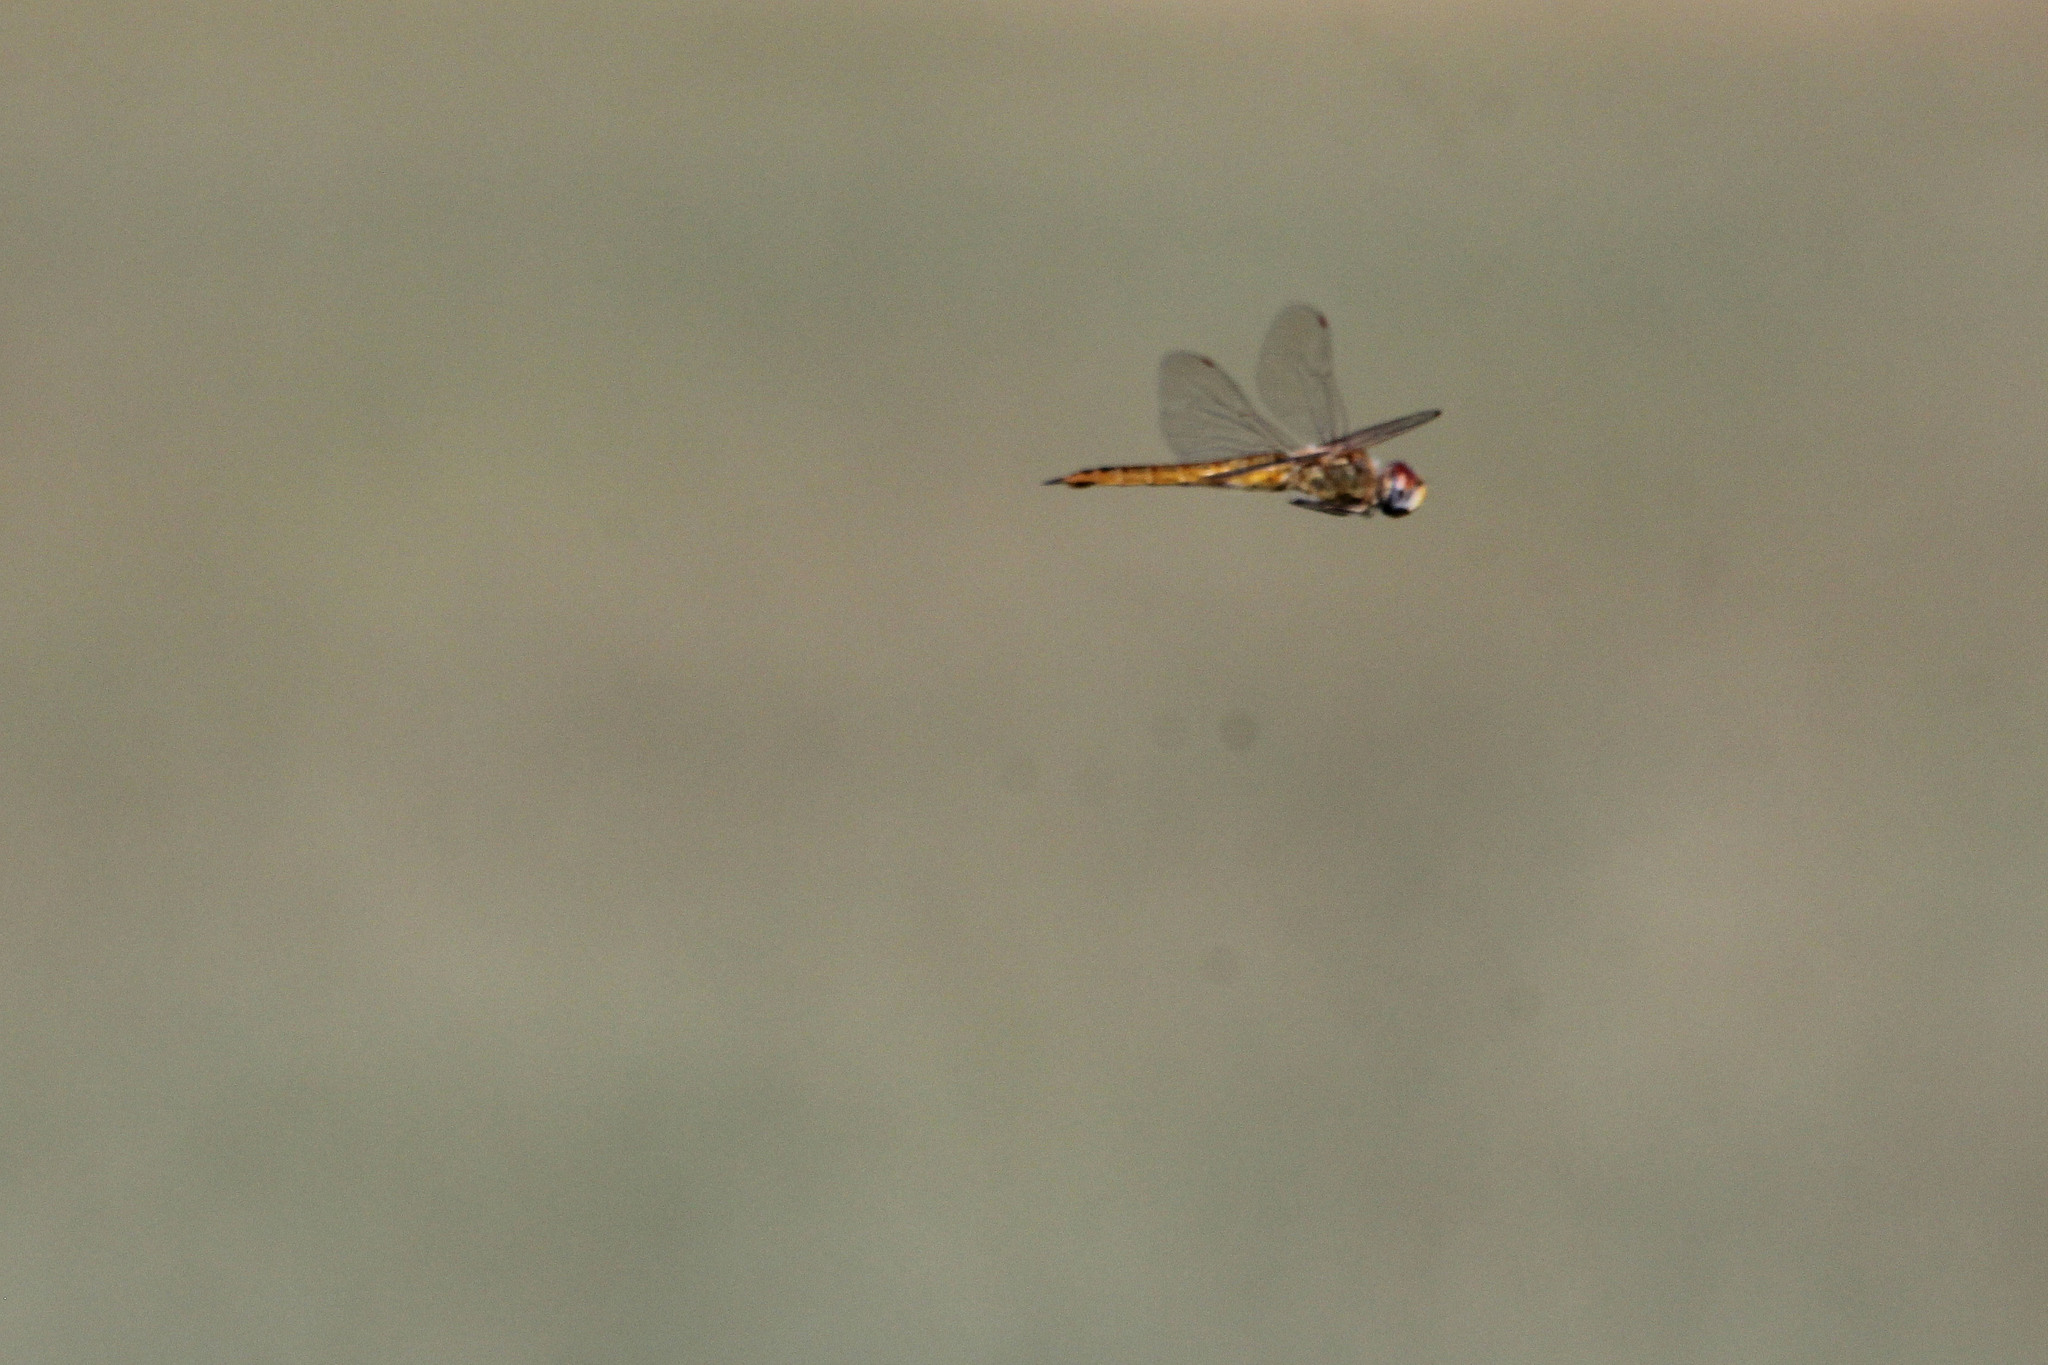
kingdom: Animalia
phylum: Arthropoda
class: Insecta
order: Odonata
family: Libellulidae
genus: Pantala
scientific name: Pantala flavescens
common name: Wandering glider
